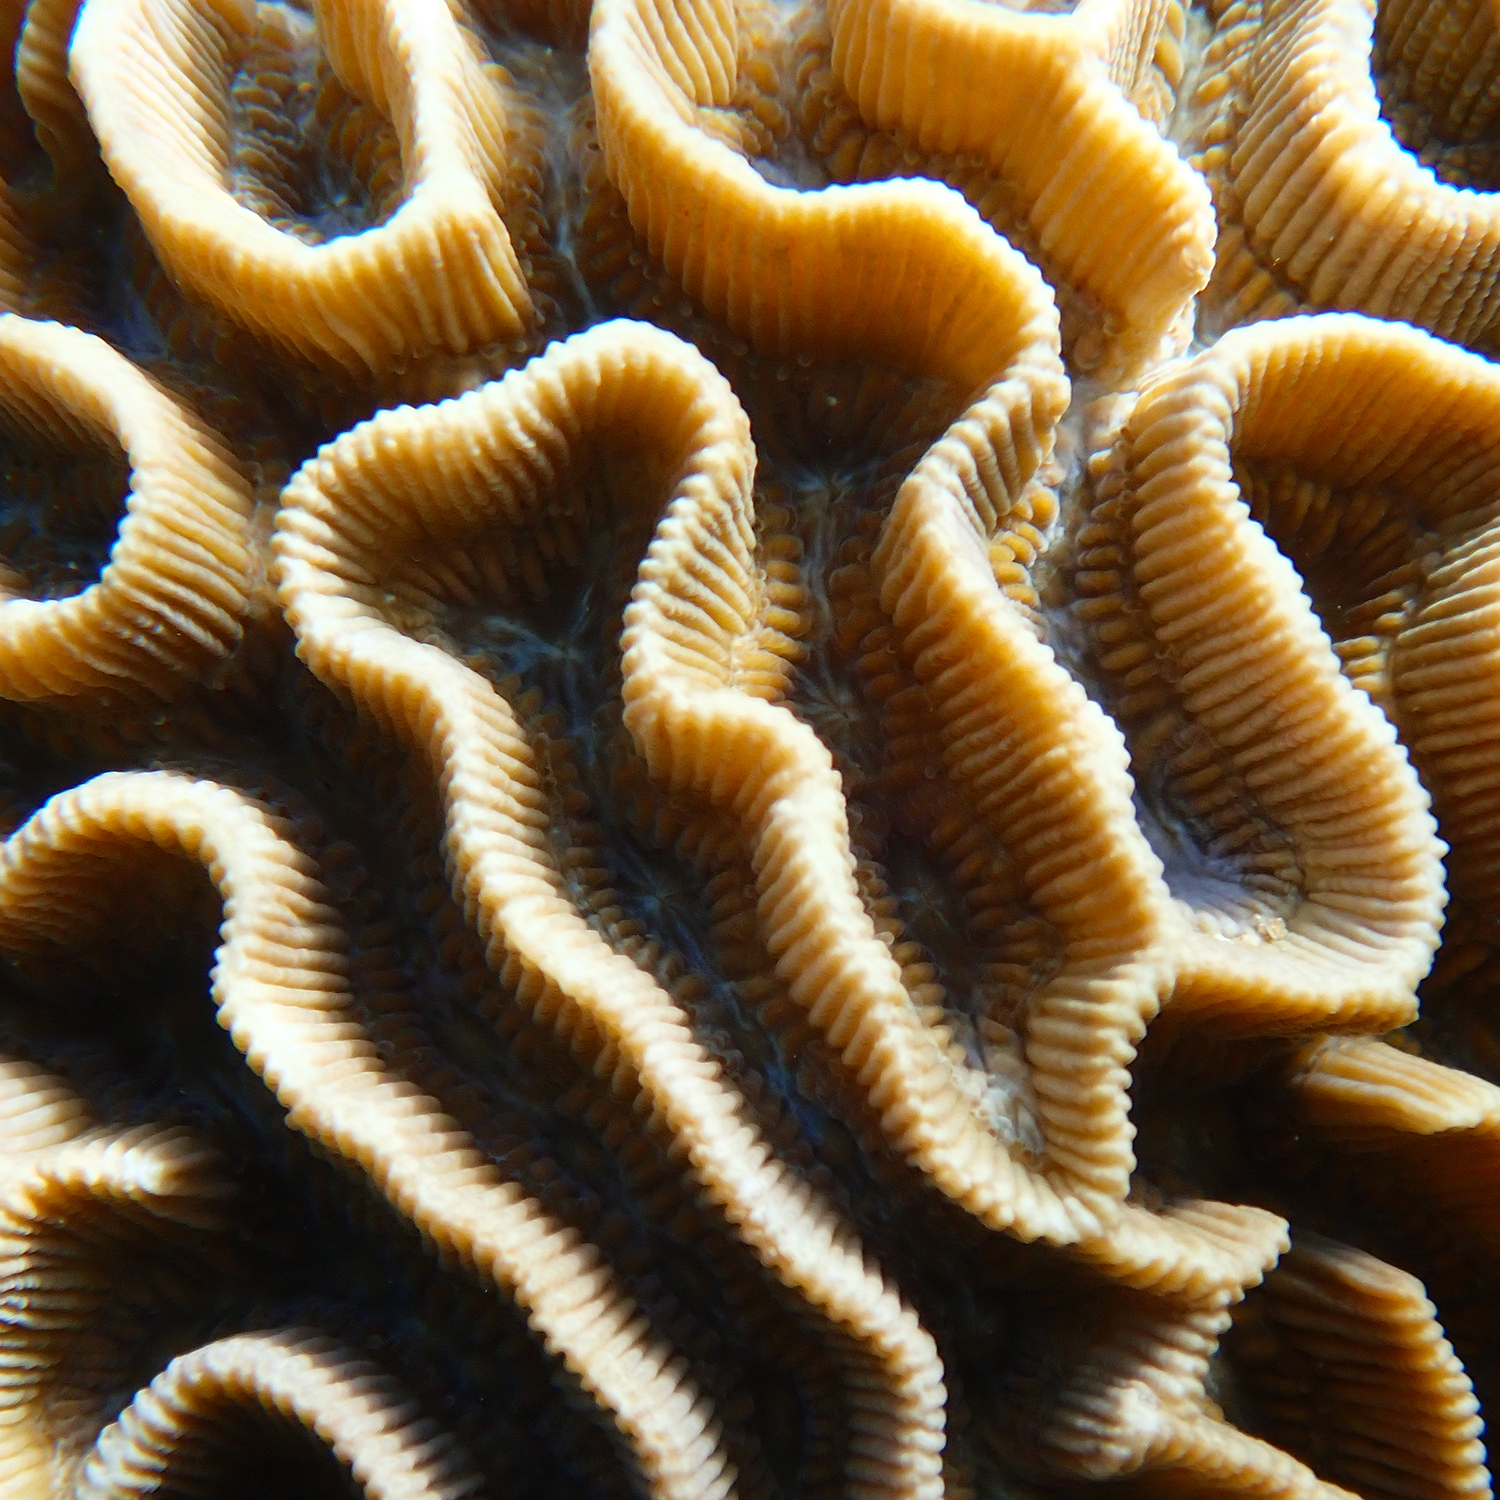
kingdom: Animalia
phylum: Cnidaria
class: Anthozoa
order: Scleractinia
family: Merulinidae
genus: Paragoniastrea
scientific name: Paragoniastrea australensis
